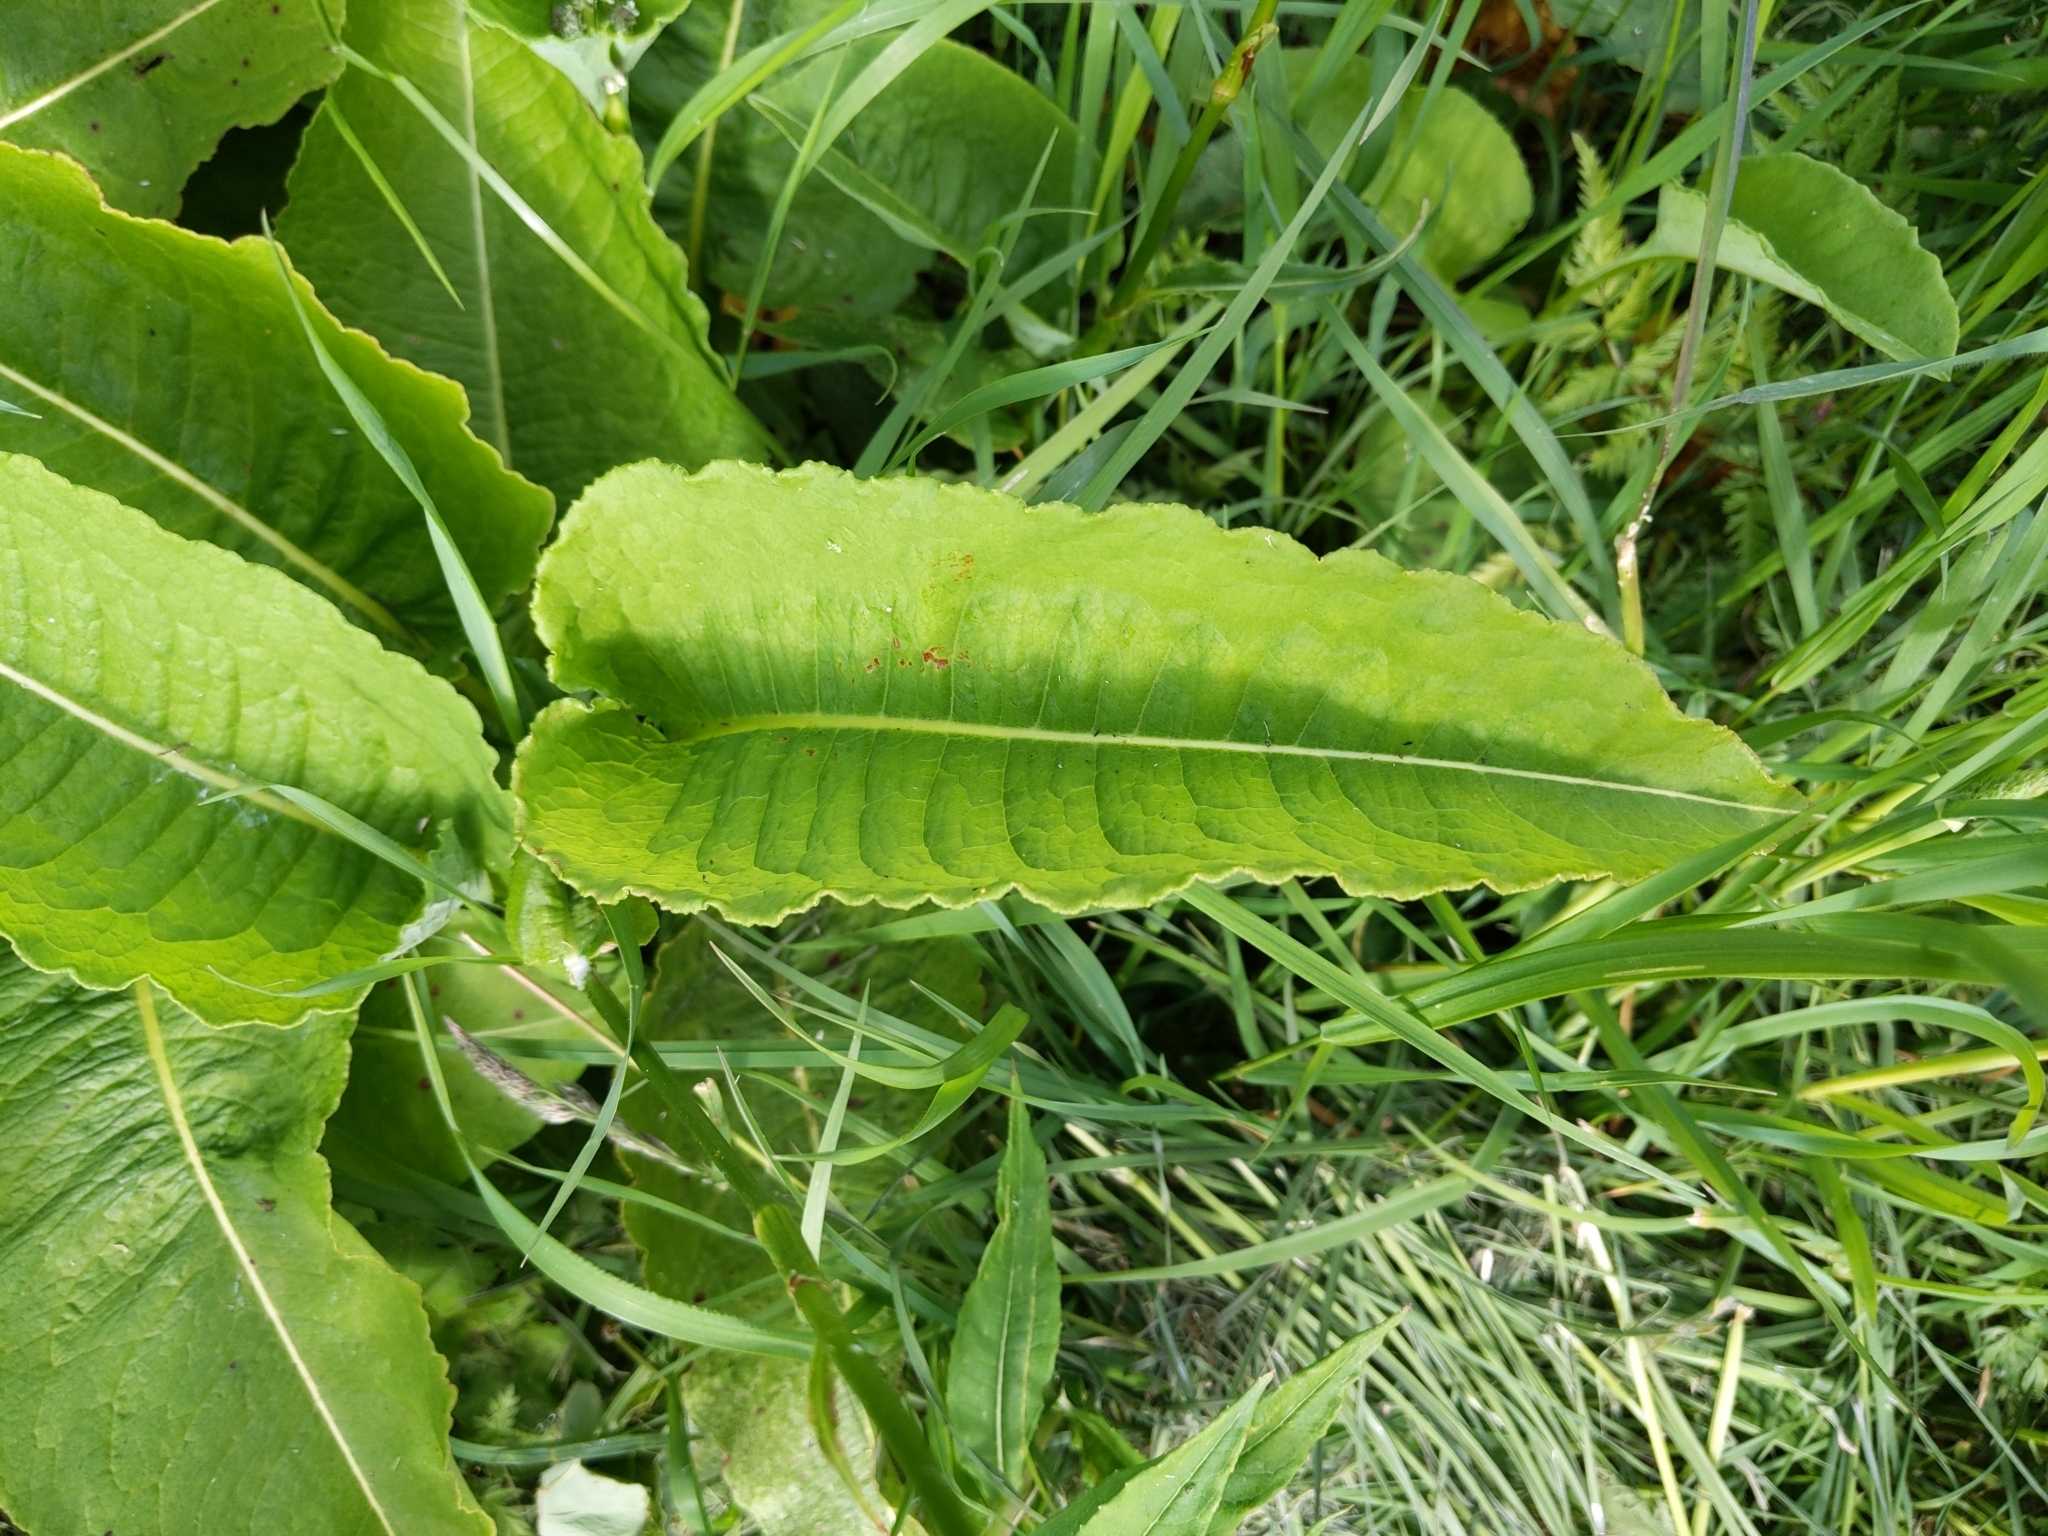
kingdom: Plantae
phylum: Tracheophyta
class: Magnoliopsida
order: Caryophyllales
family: Polygonaceae
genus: Bistorta
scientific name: Bistorta officinalis
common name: Common bistort
